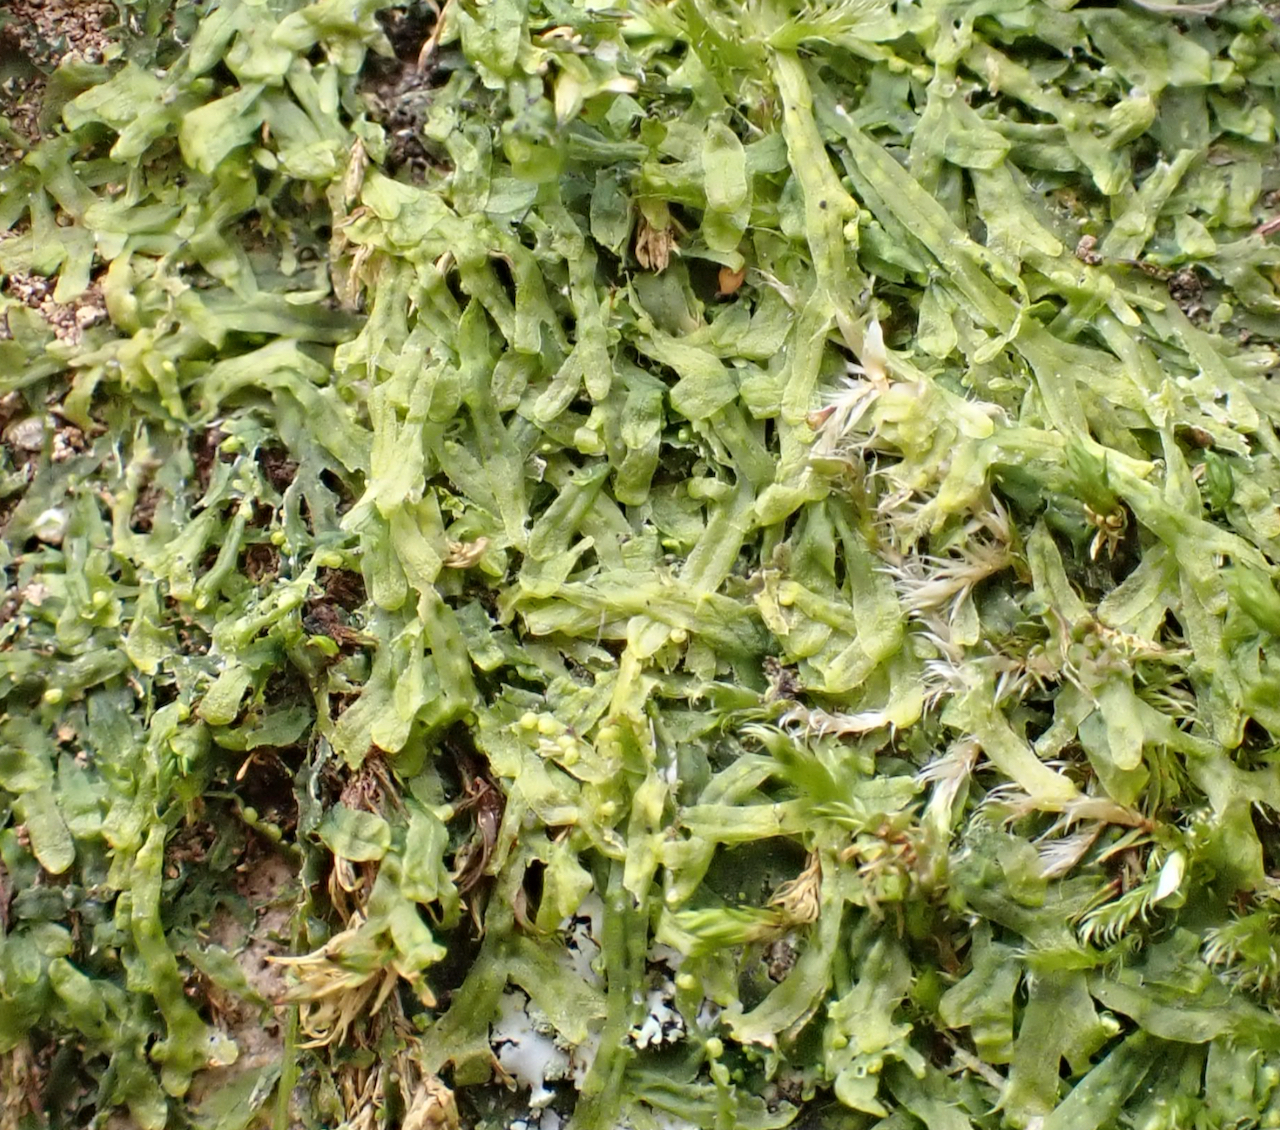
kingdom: Plantae
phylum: Marchantiophyta
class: Jungermanniopsida
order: Metzgeriales
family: Metzgeriaceae
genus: Metzgeria
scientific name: Metzgeria furcata
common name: Forked veilwort
